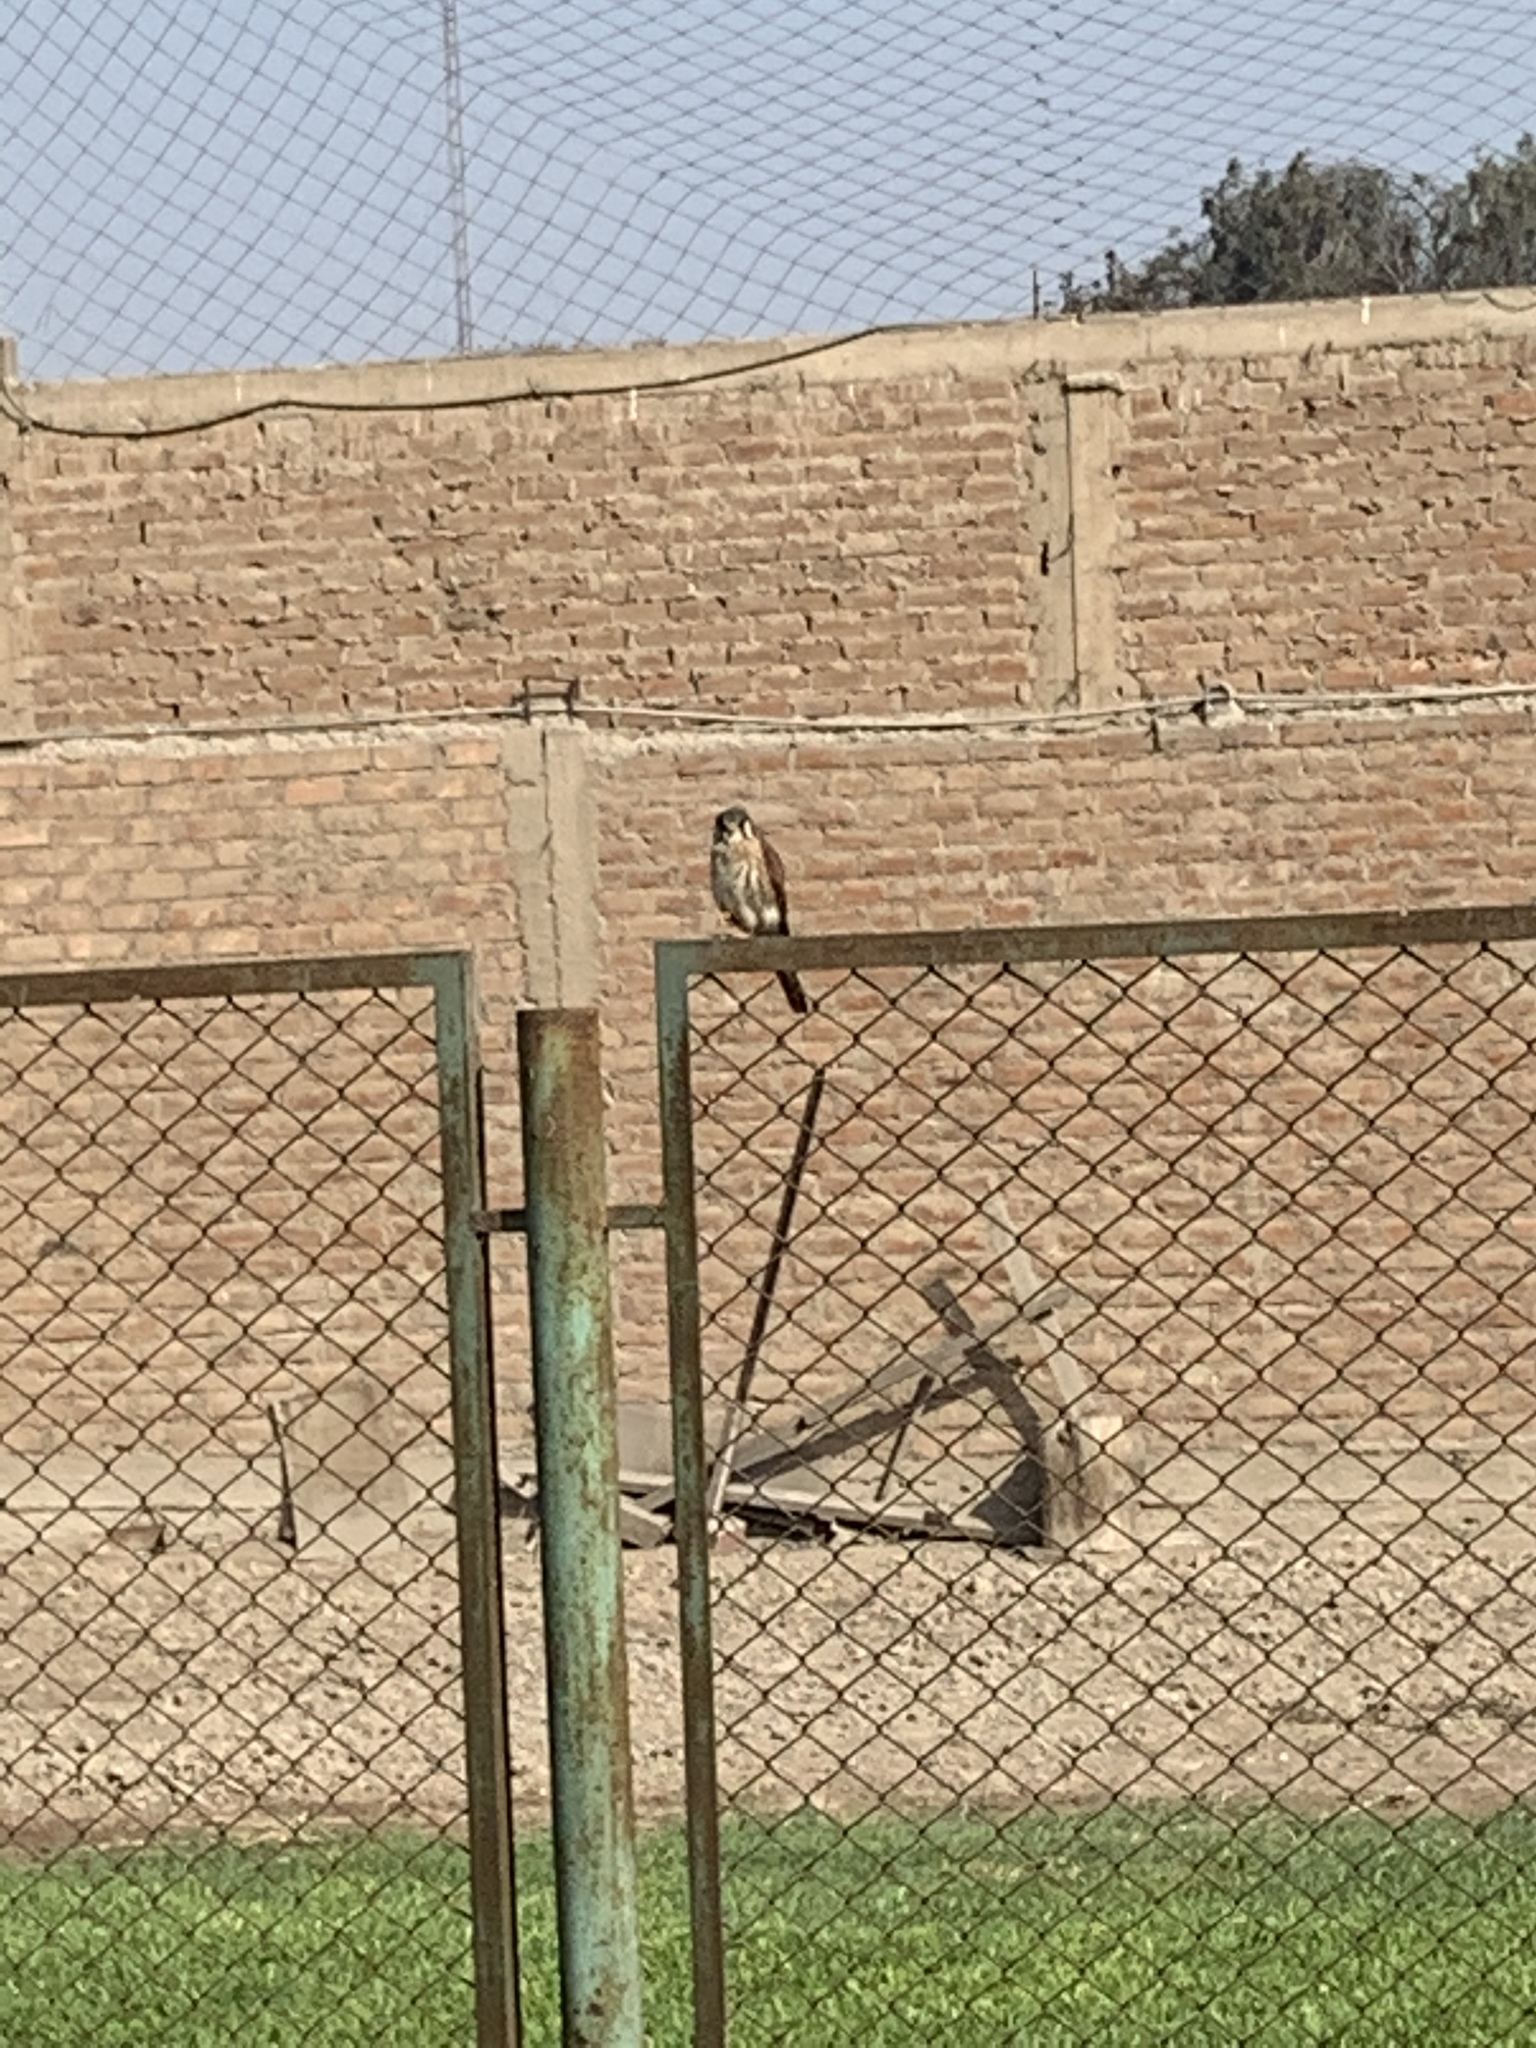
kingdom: Animalia
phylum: Chordata
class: Aves
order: Falconiformes
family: Falconidae
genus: Falco
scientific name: Falco sparverius
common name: American kestrel
